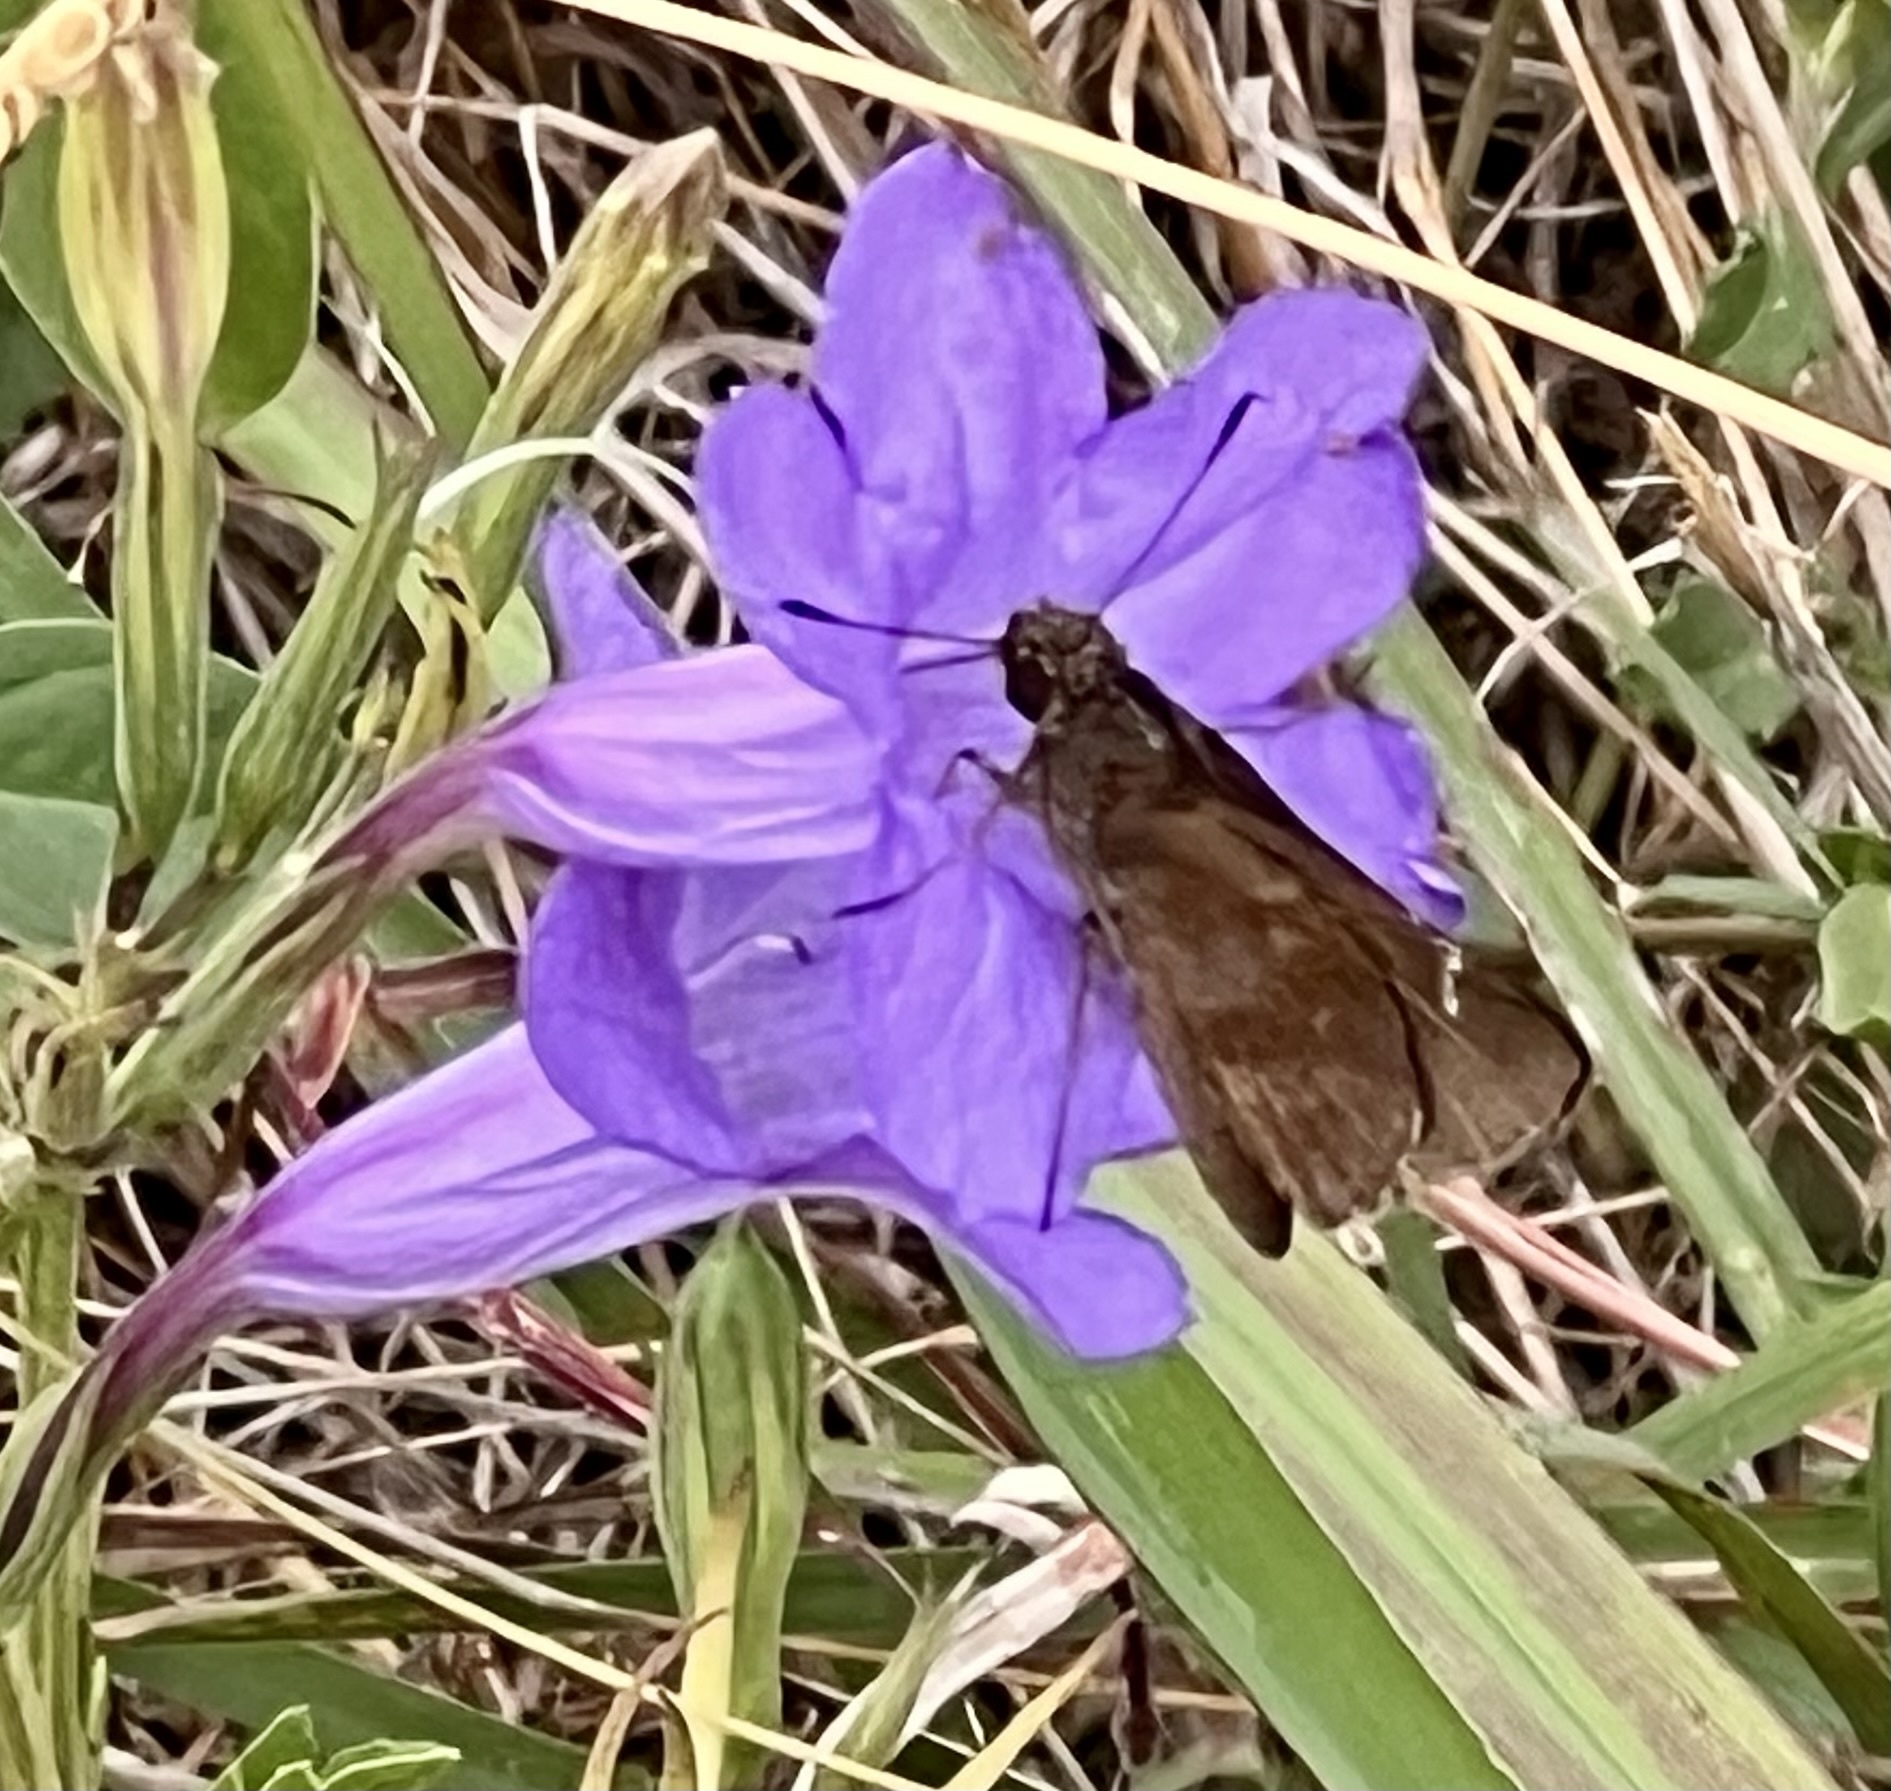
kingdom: Animalia
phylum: Arthropoda
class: Insecta
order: Lepidoptera
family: Hesperiidae
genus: Lerema
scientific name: Lerema accius
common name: Clouded skipper
